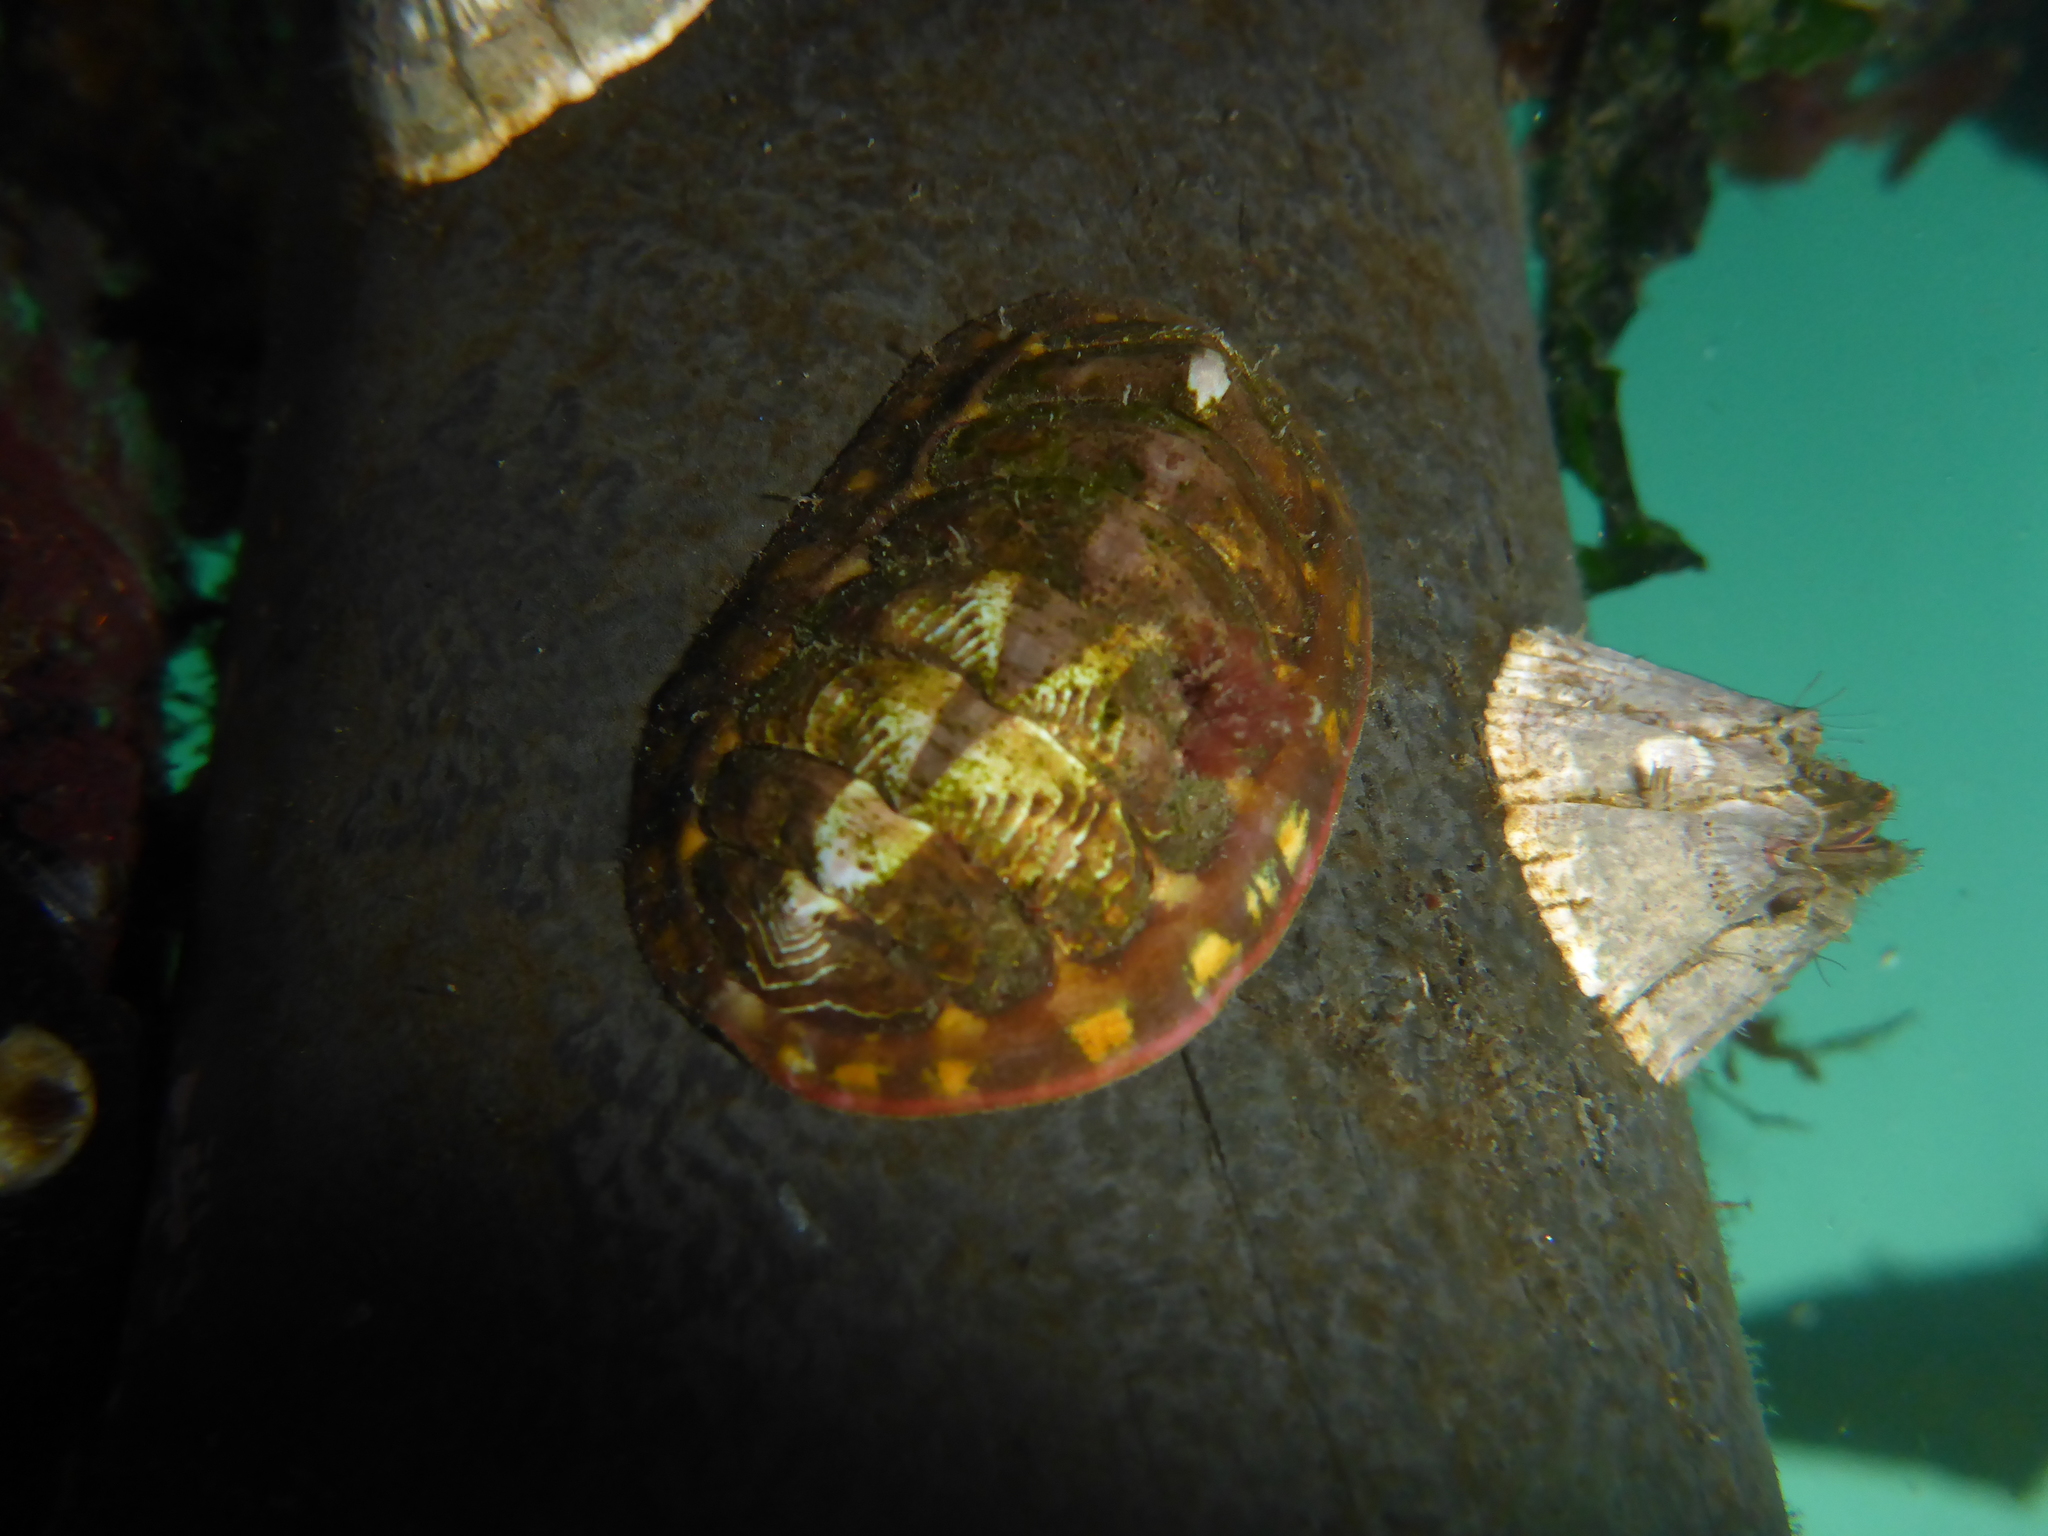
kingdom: Animalia
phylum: Mollusca
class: Polyplacophora
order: Chitonida
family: Tonicellidae
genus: Tonicella
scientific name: Tonicella lineata
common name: Lined chiton
